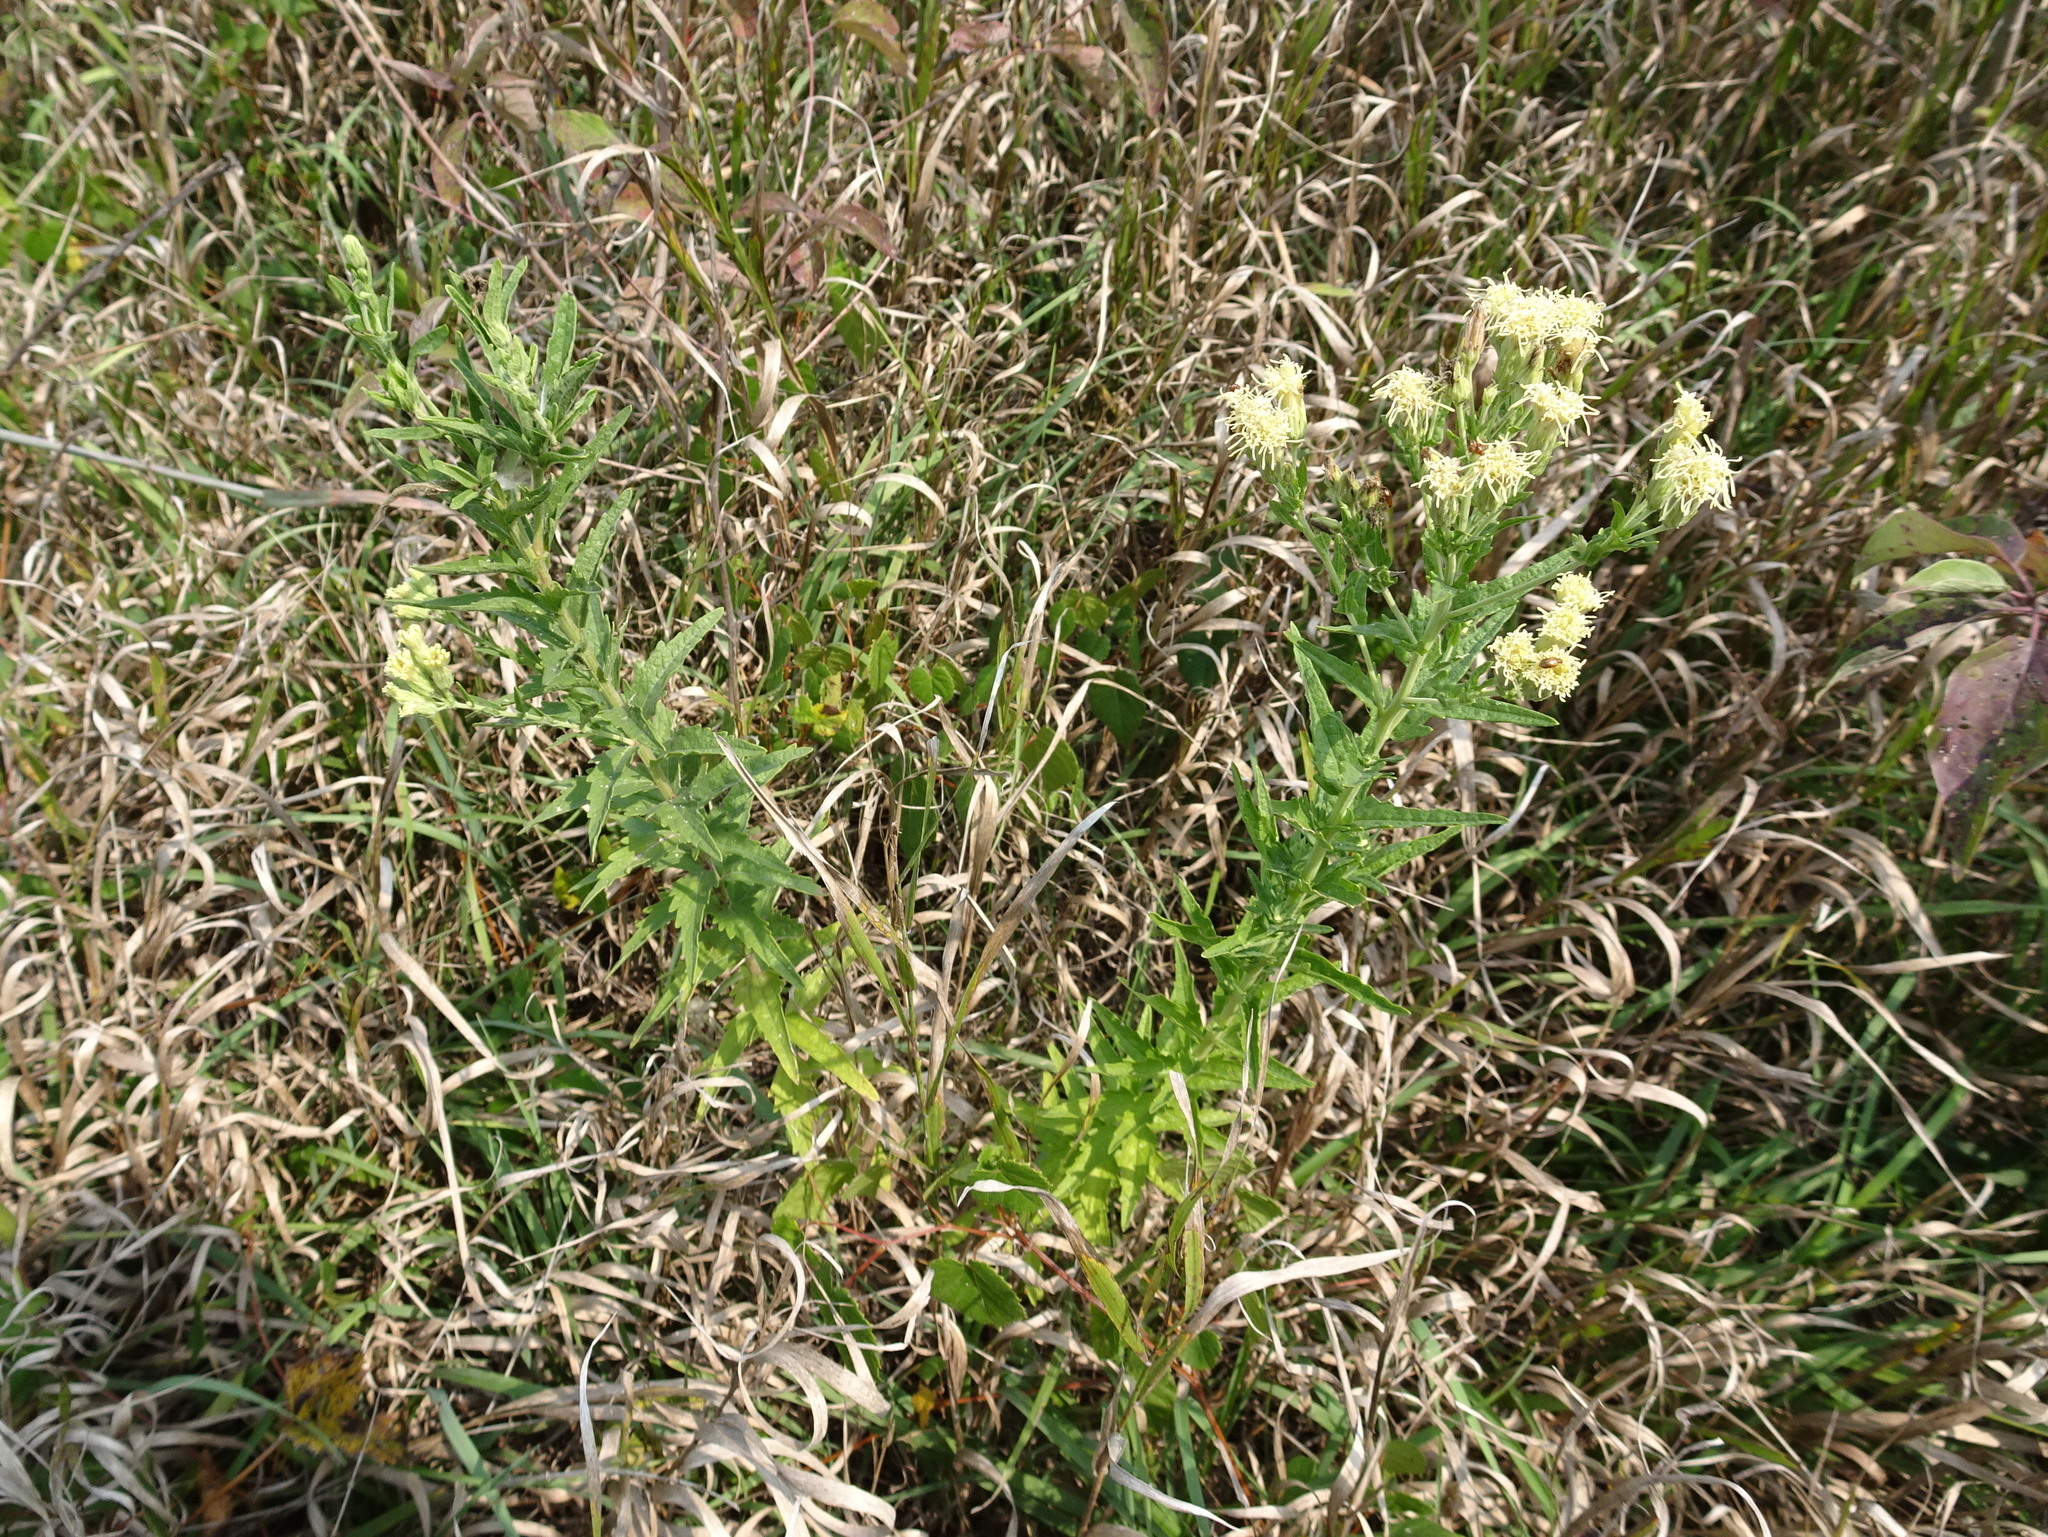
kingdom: Plantae
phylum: Tracheophyta
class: Magnoliopsida
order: Asterales
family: Asteraceae
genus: Brickellia
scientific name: Brickellia eupatorioides
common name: False boneset
